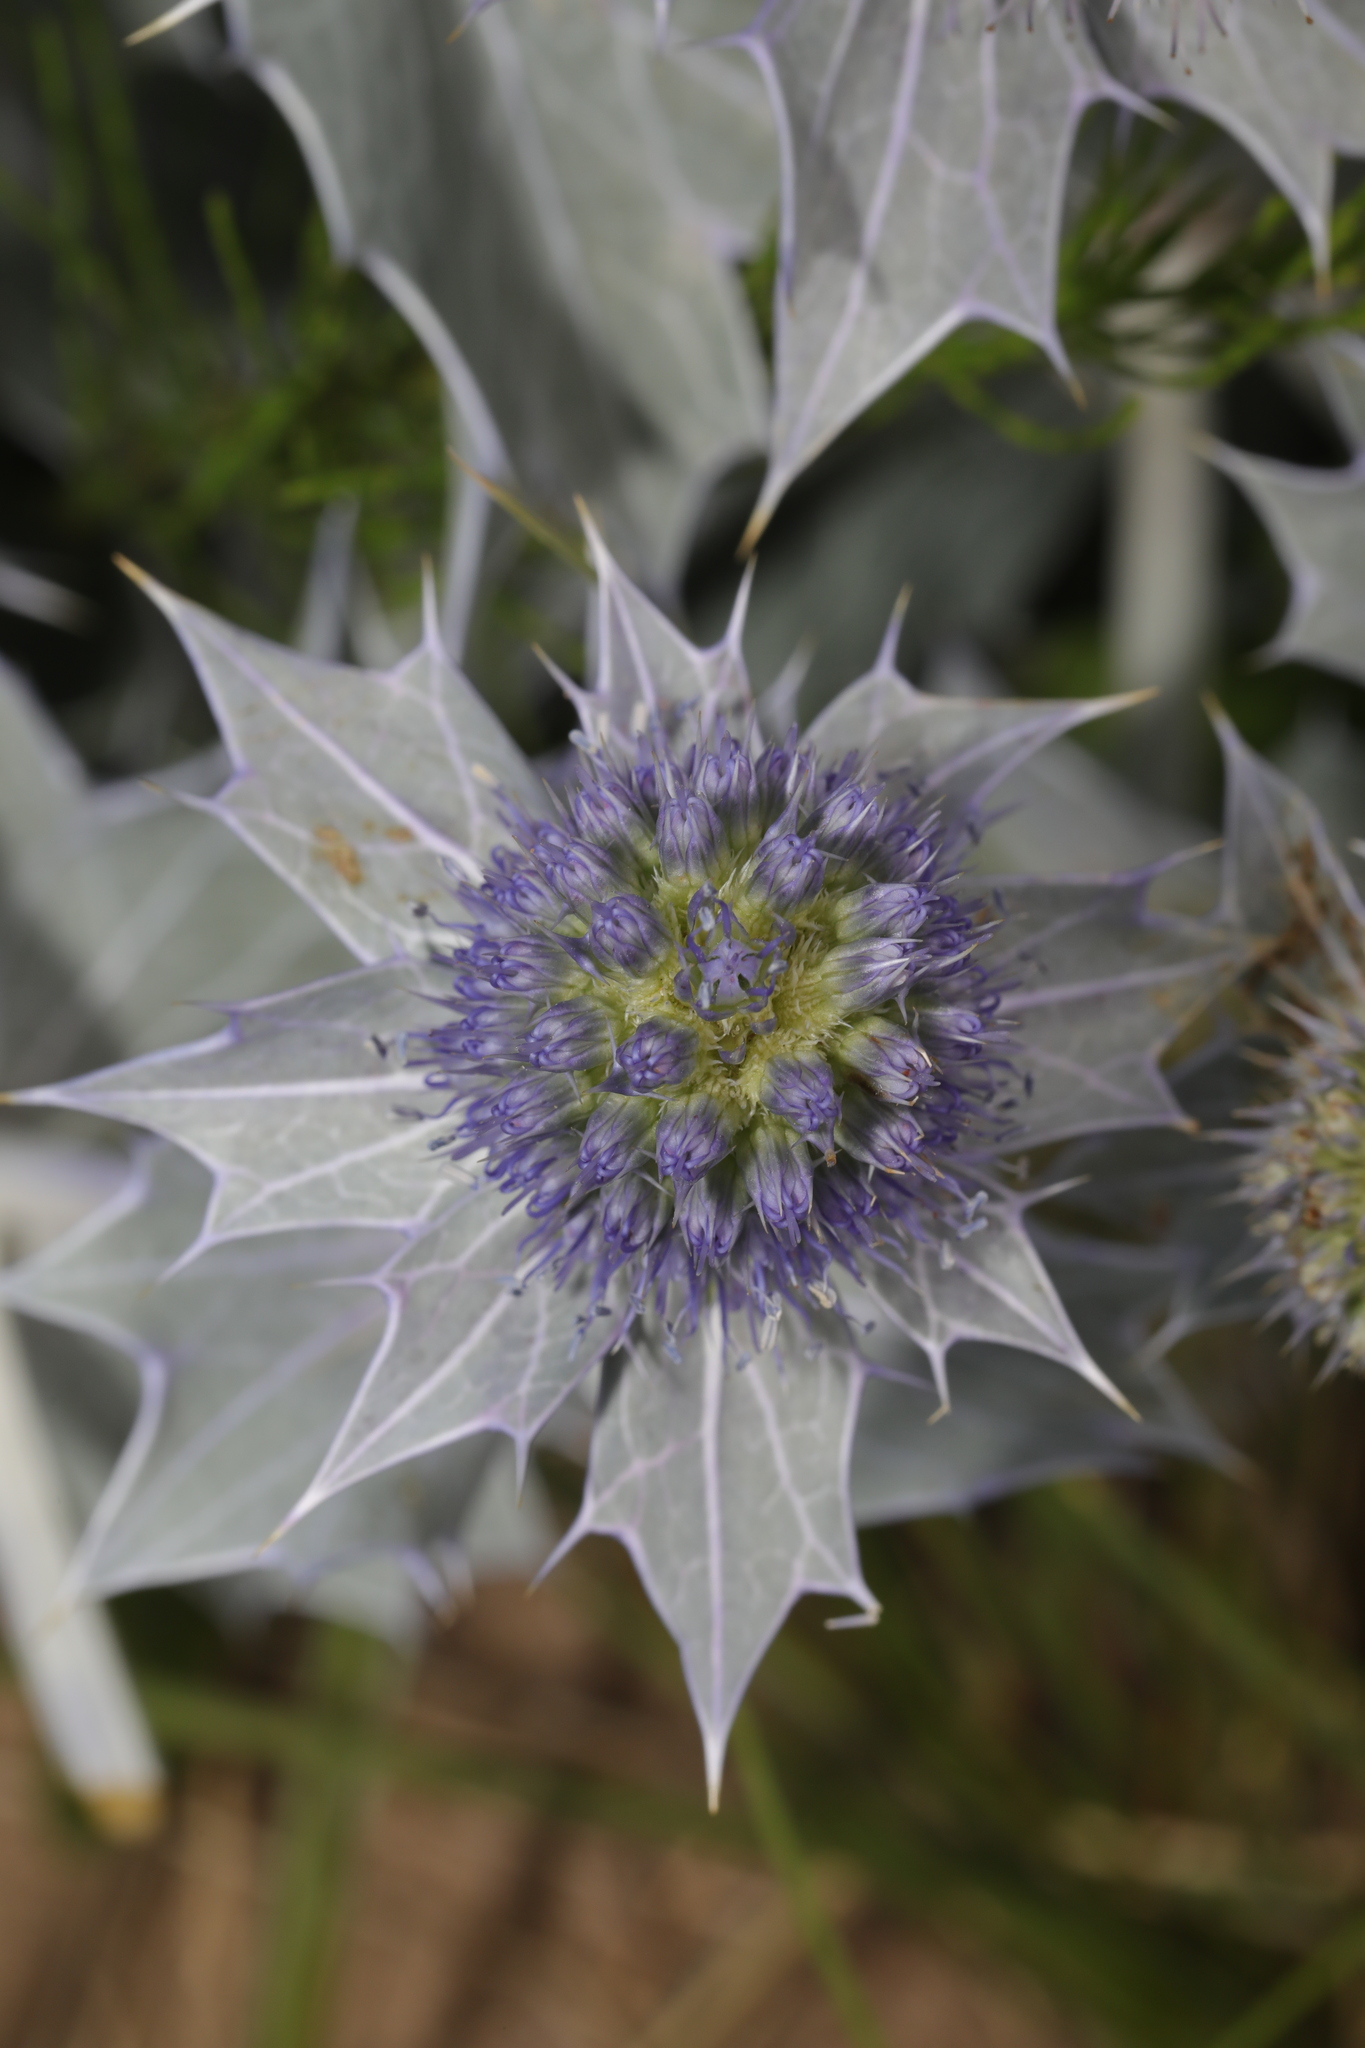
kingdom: Plantae
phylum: Tracheophyta
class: Magnoliopsida
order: Apiales
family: Apiaceae
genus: Eryngium
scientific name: Eryngium maritimum
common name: Sea-holly
